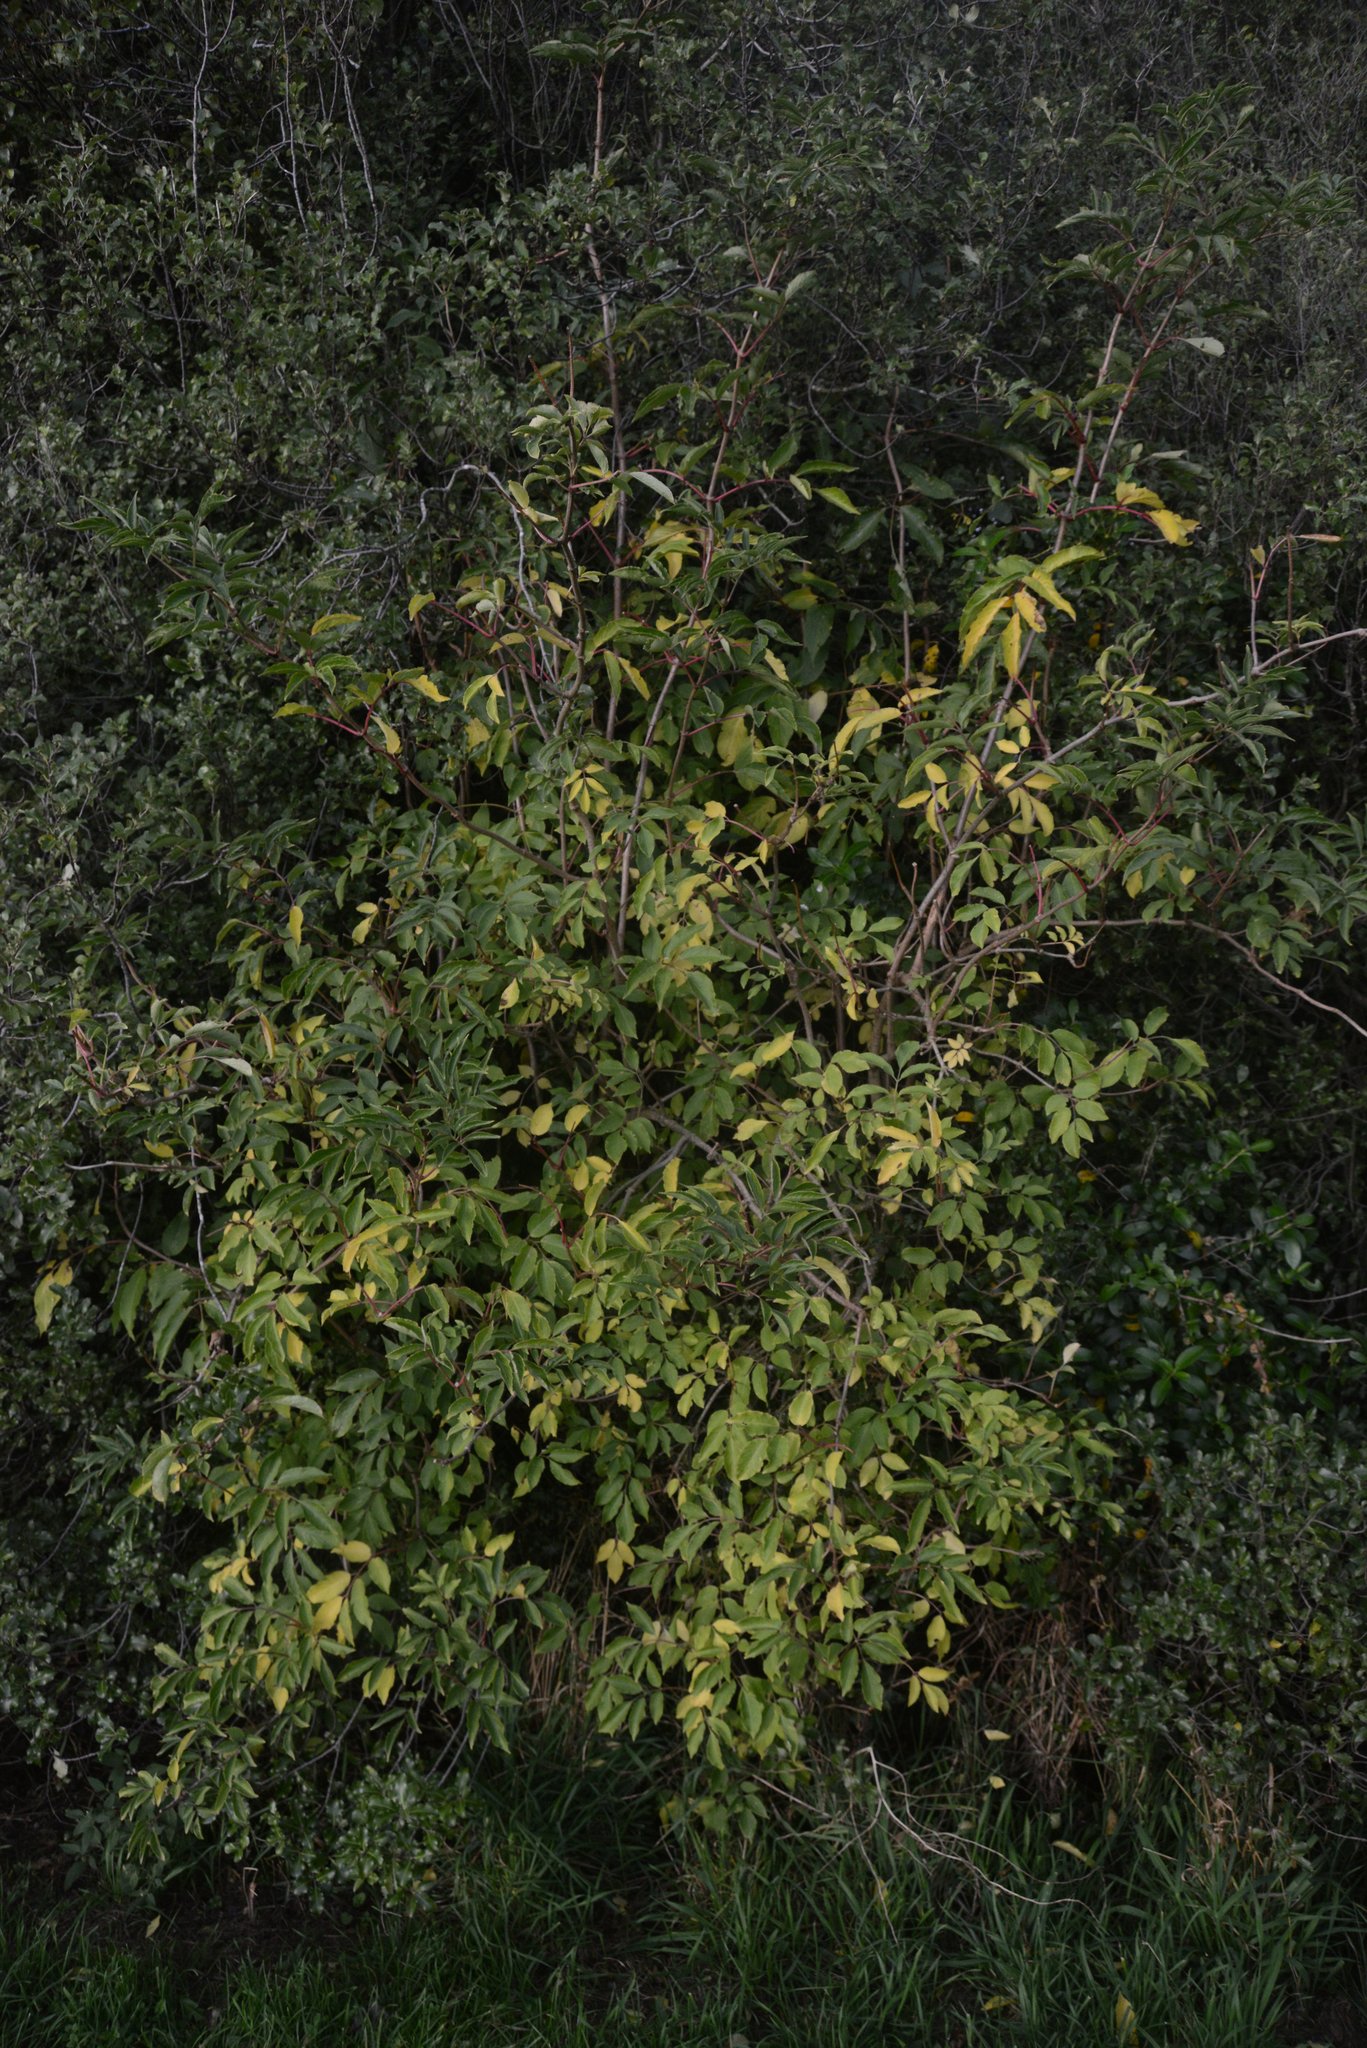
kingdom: Plantae
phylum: Tracheophyta
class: Magnoliopsida
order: Dipsacales
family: Viburnaceae
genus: Sambucus
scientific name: Sambucus nigra
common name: Elder
